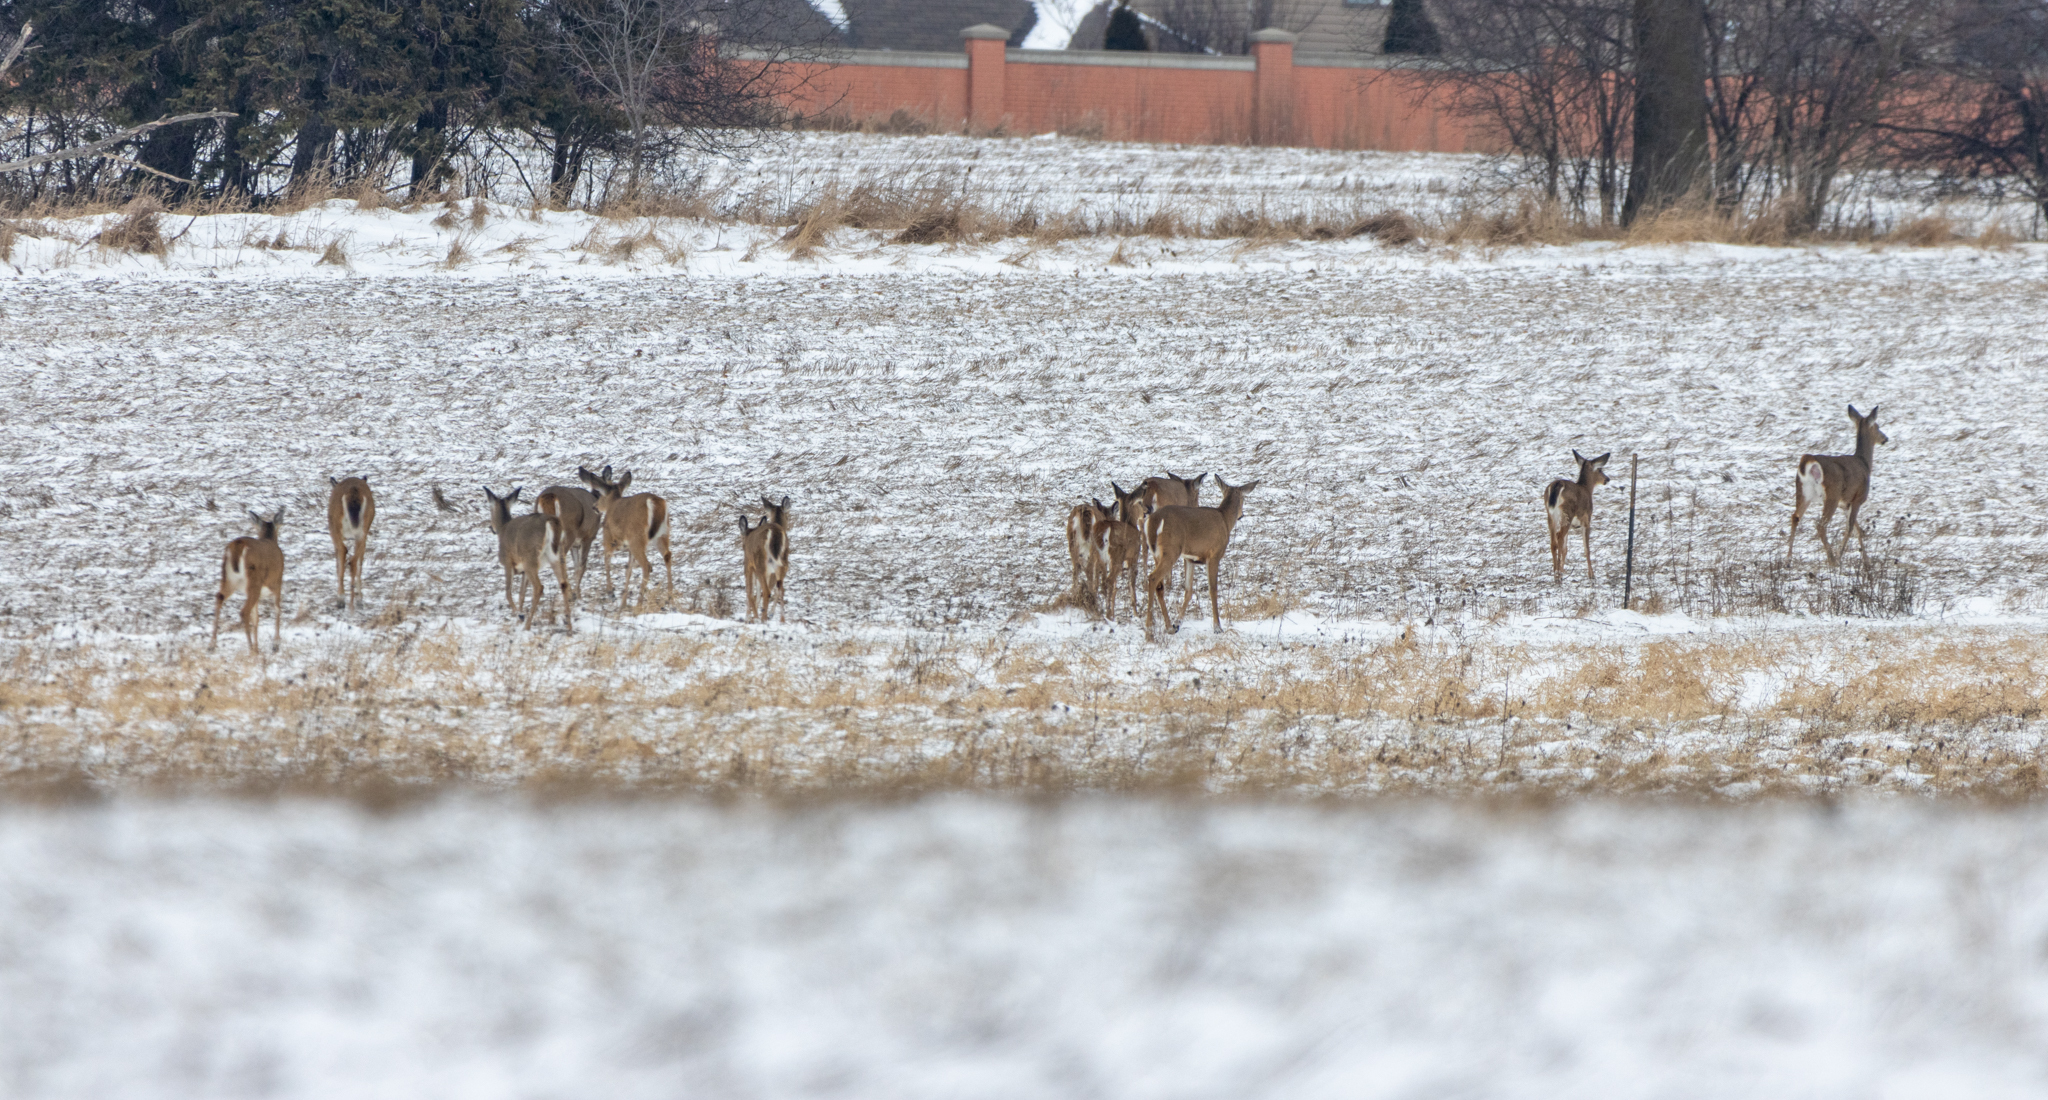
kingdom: Animalia
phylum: Chordata
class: Mammalia
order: Artiodactyla
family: Cervidae
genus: Odocoileus
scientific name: Odocoileus virginianus
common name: White-tailed deer
